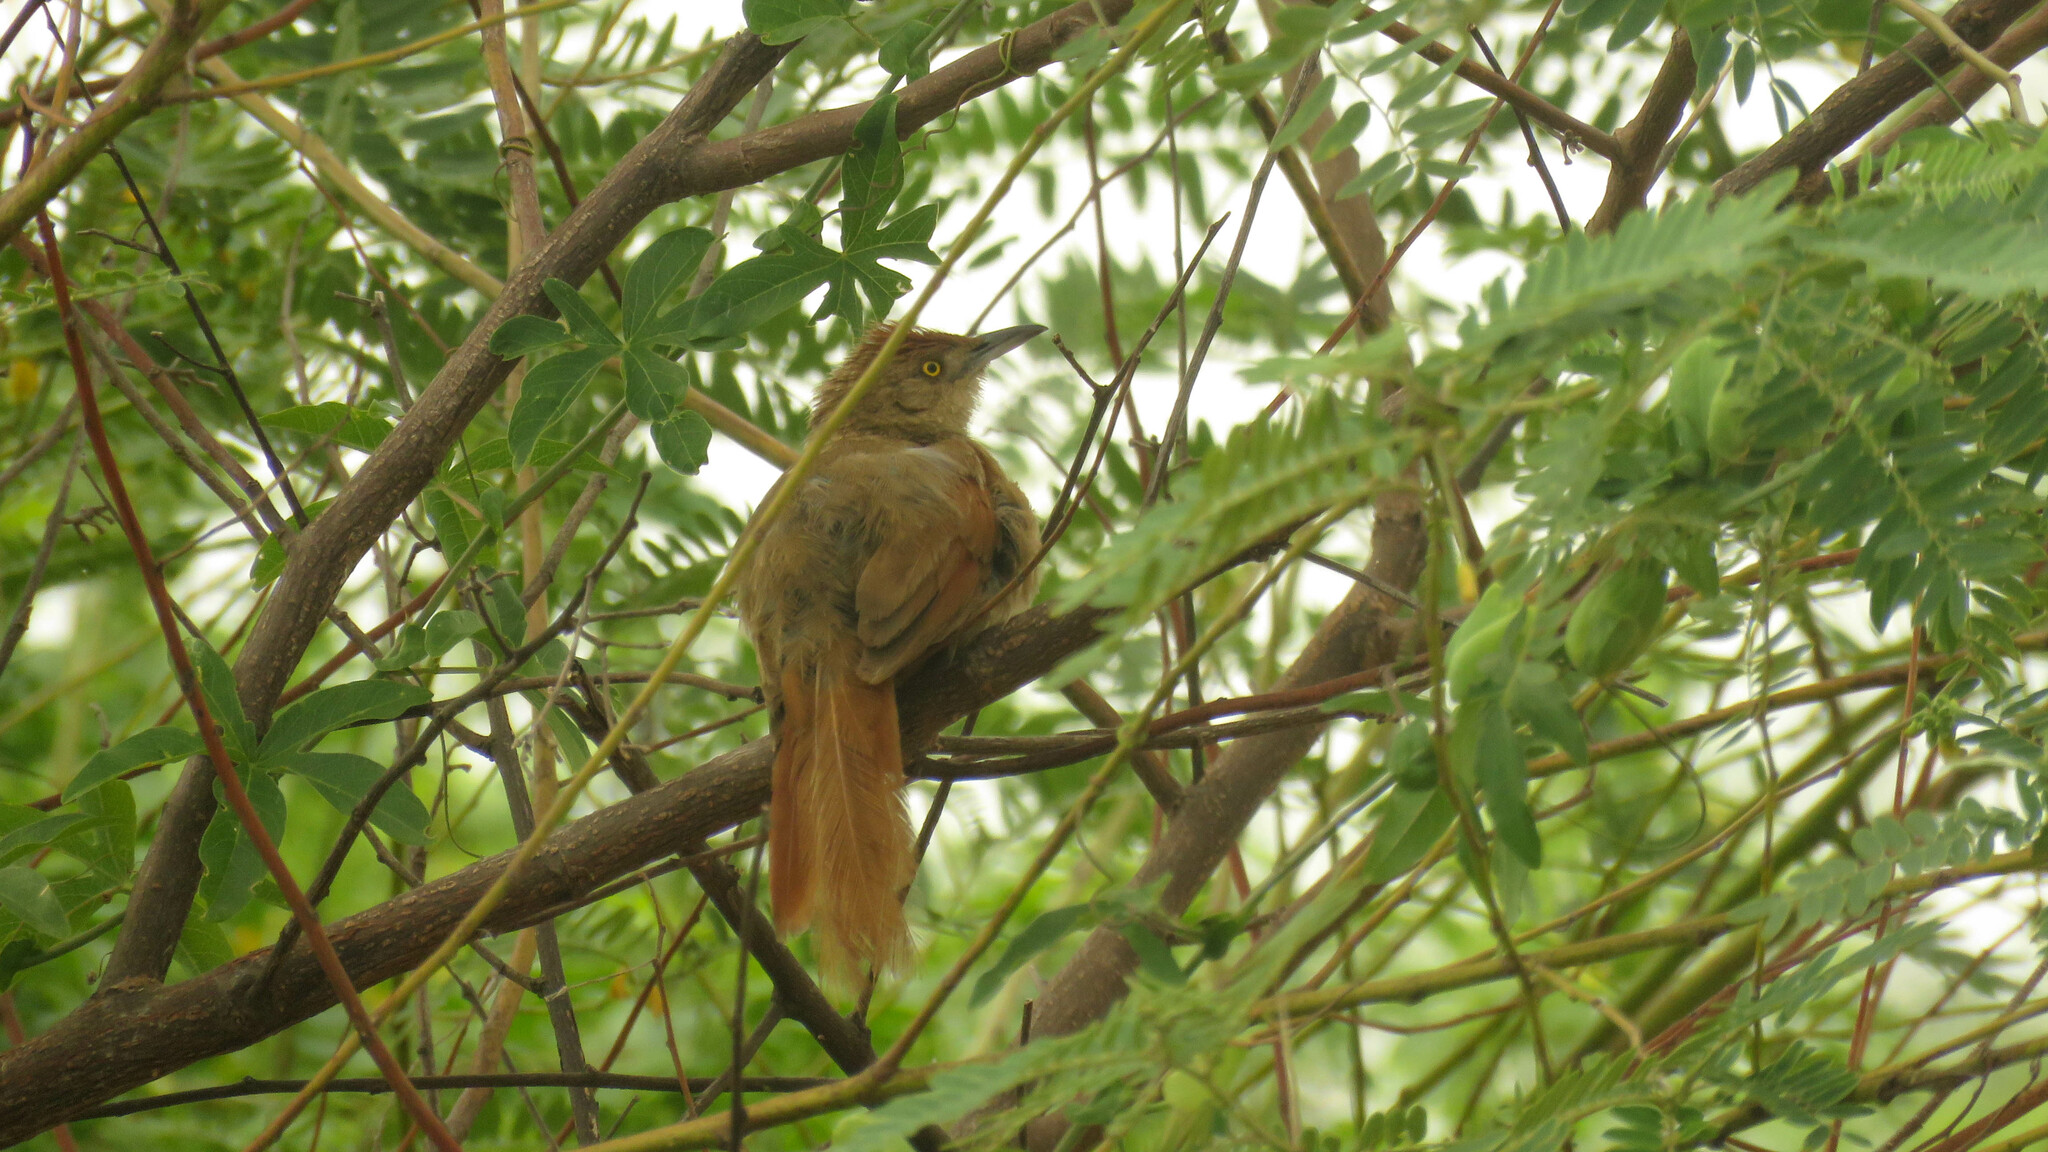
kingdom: Animalia
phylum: Chordata
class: Aves
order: Passeriformes
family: Furnariidae
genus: Phacellodomus
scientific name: Phacellodomus ruber
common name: Greater thornbird
